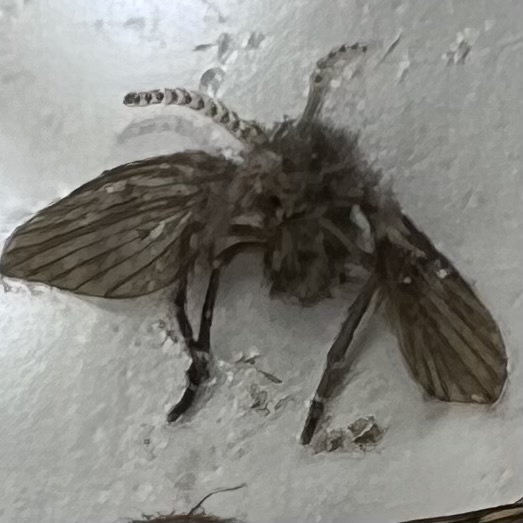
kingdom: Animalia
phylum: Arthropoda
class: Insecta
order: Diptera
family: Psychodidae
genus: Clogmia
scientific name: Clogmia albipunctatus
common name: White-spotted moth fly
